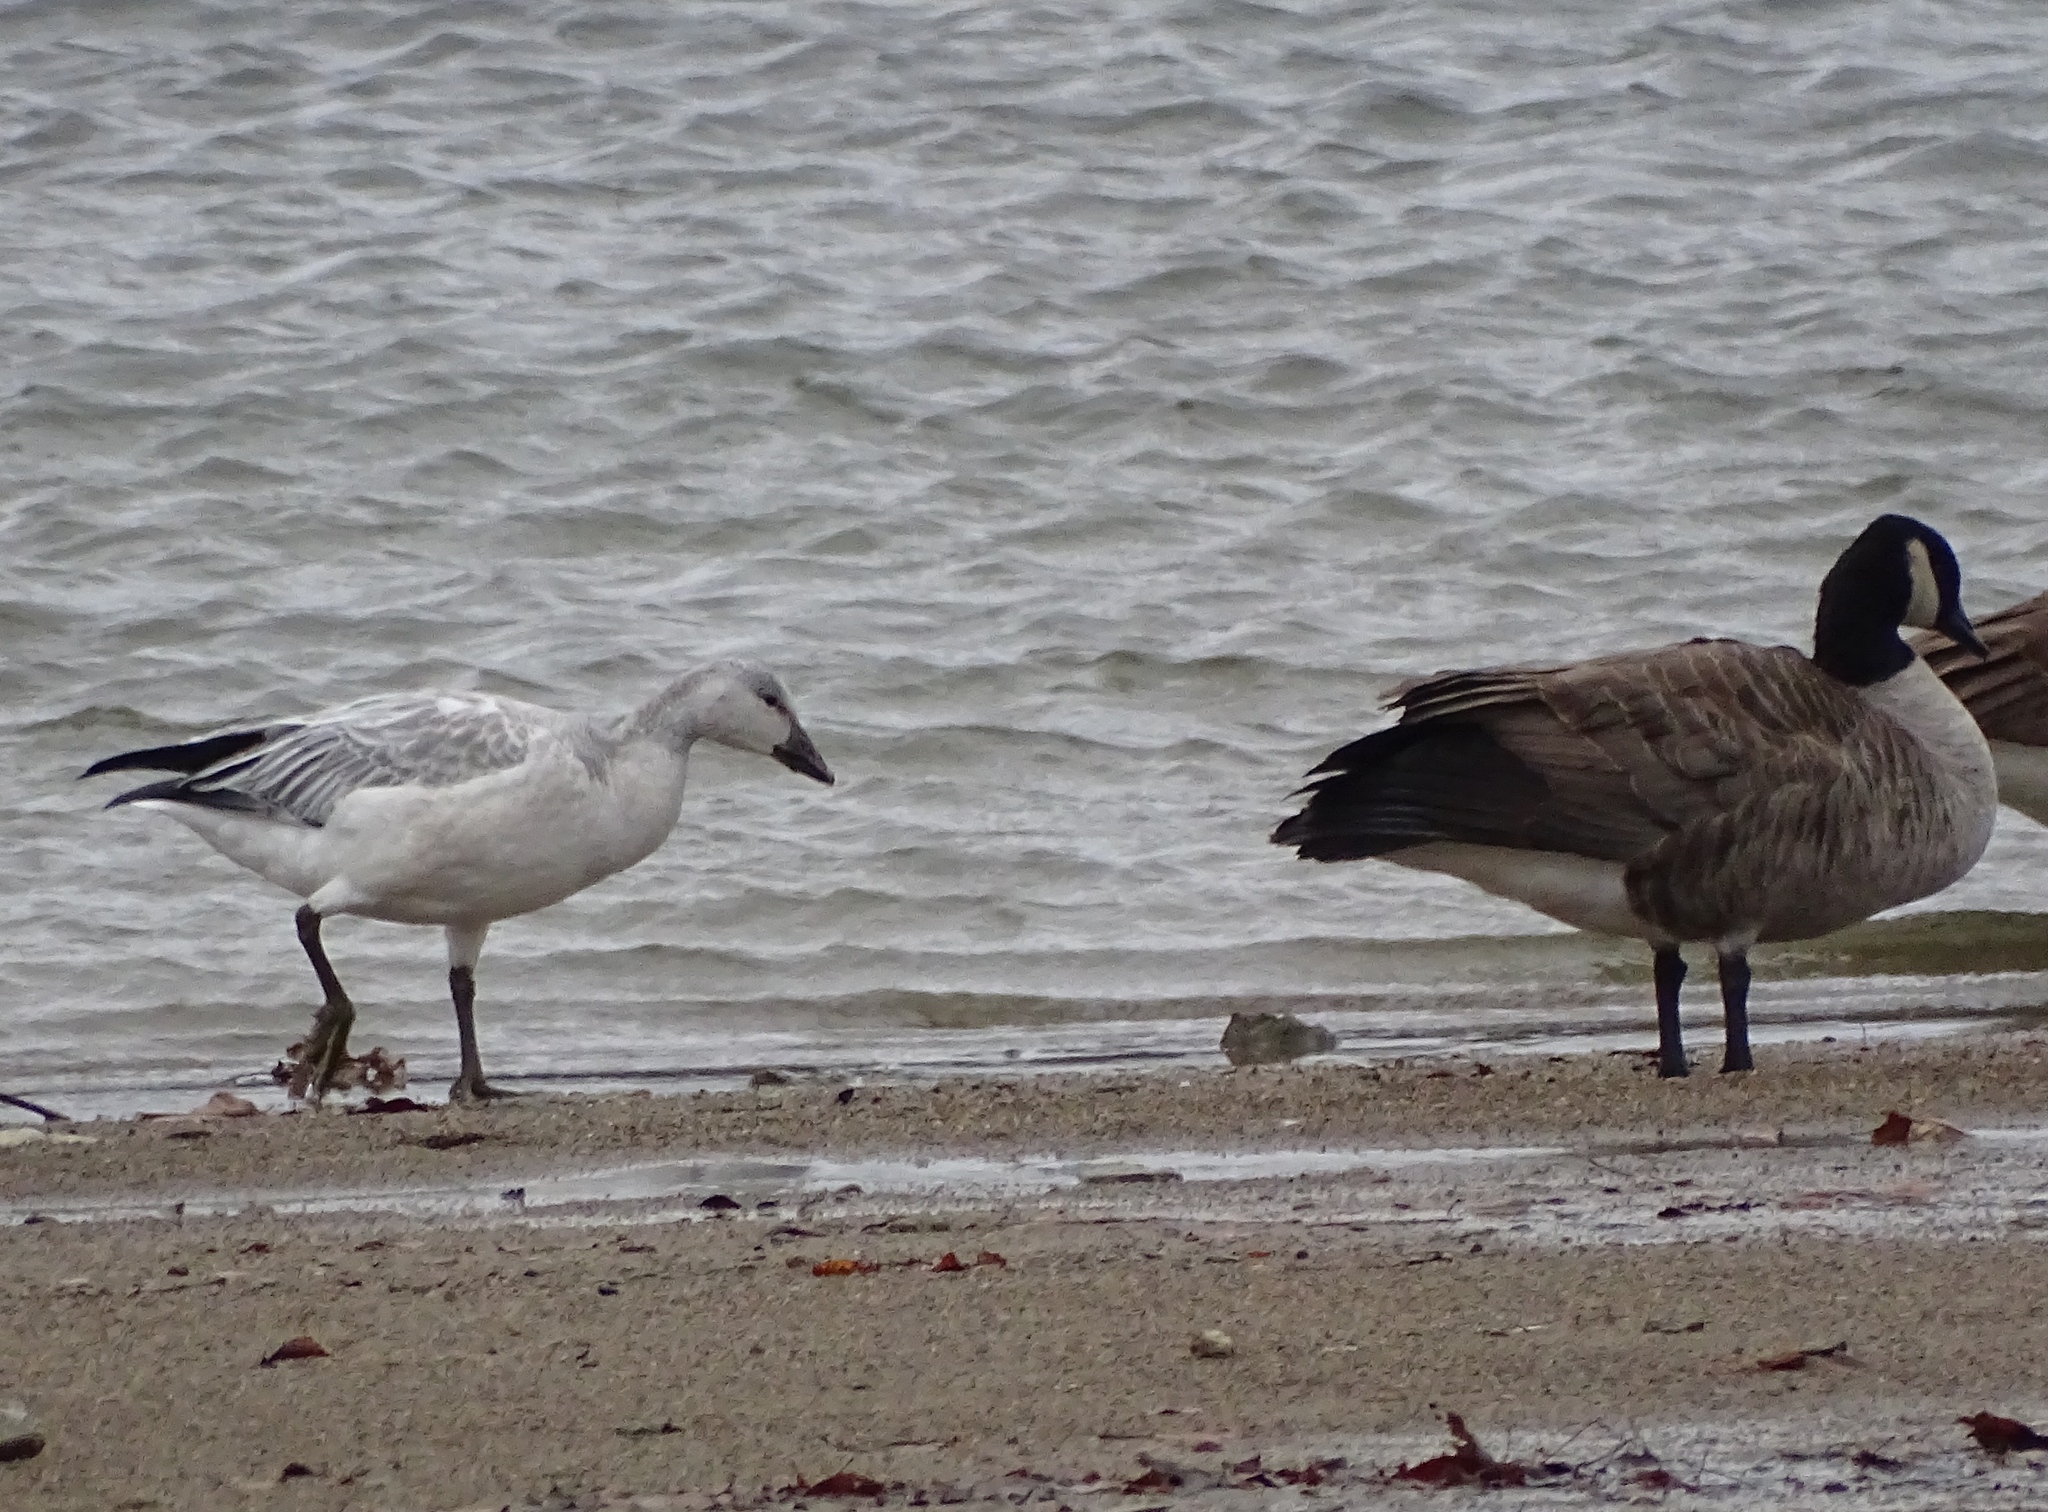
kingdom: Animalia
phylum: Chordata
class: Aves
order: Anseriformes
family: Anatidae
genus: Anser
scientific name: Anser caerulescens
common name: Snow goose
